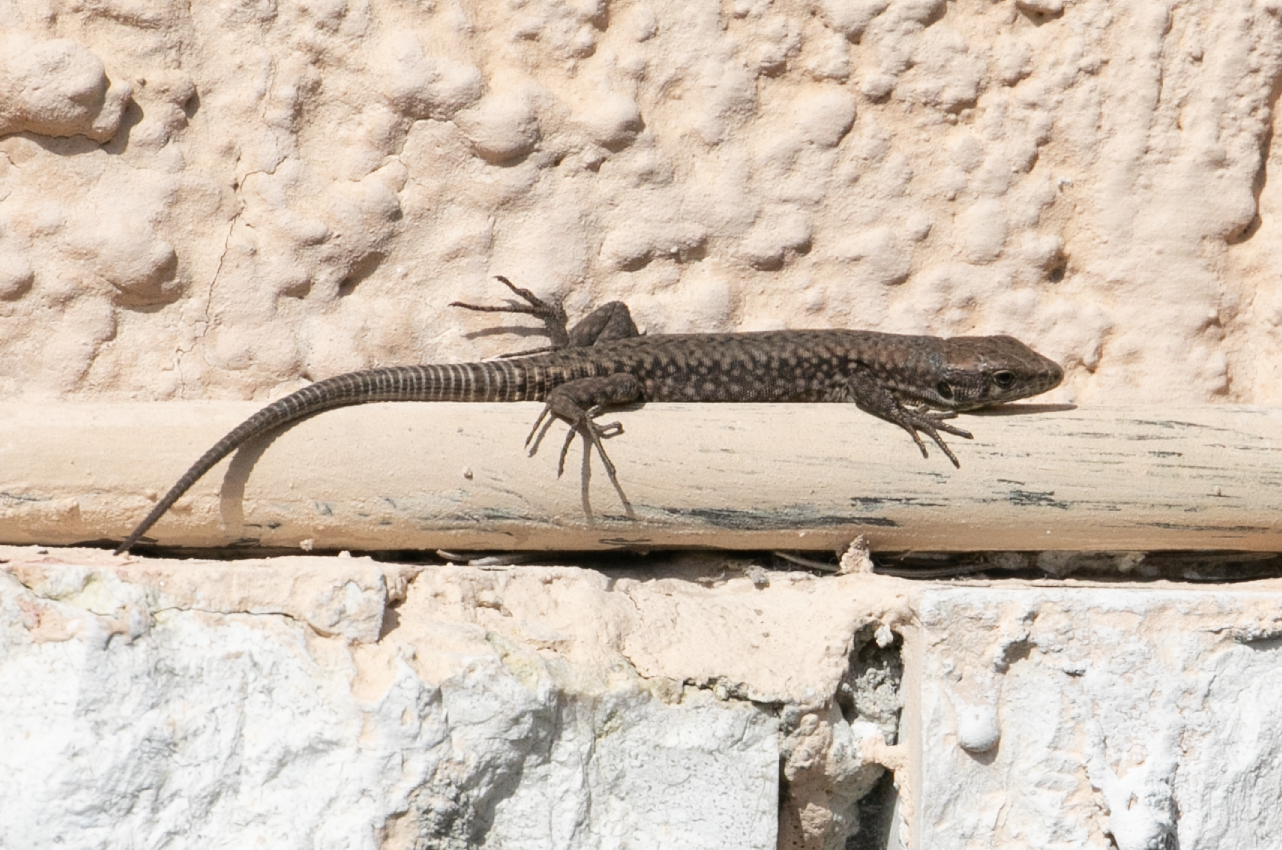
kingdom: Animalia
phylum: Chordata
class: Squamata
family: Lacertidae
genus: Podarcis
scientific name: Podarcis muralis
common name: Common wall lizard
